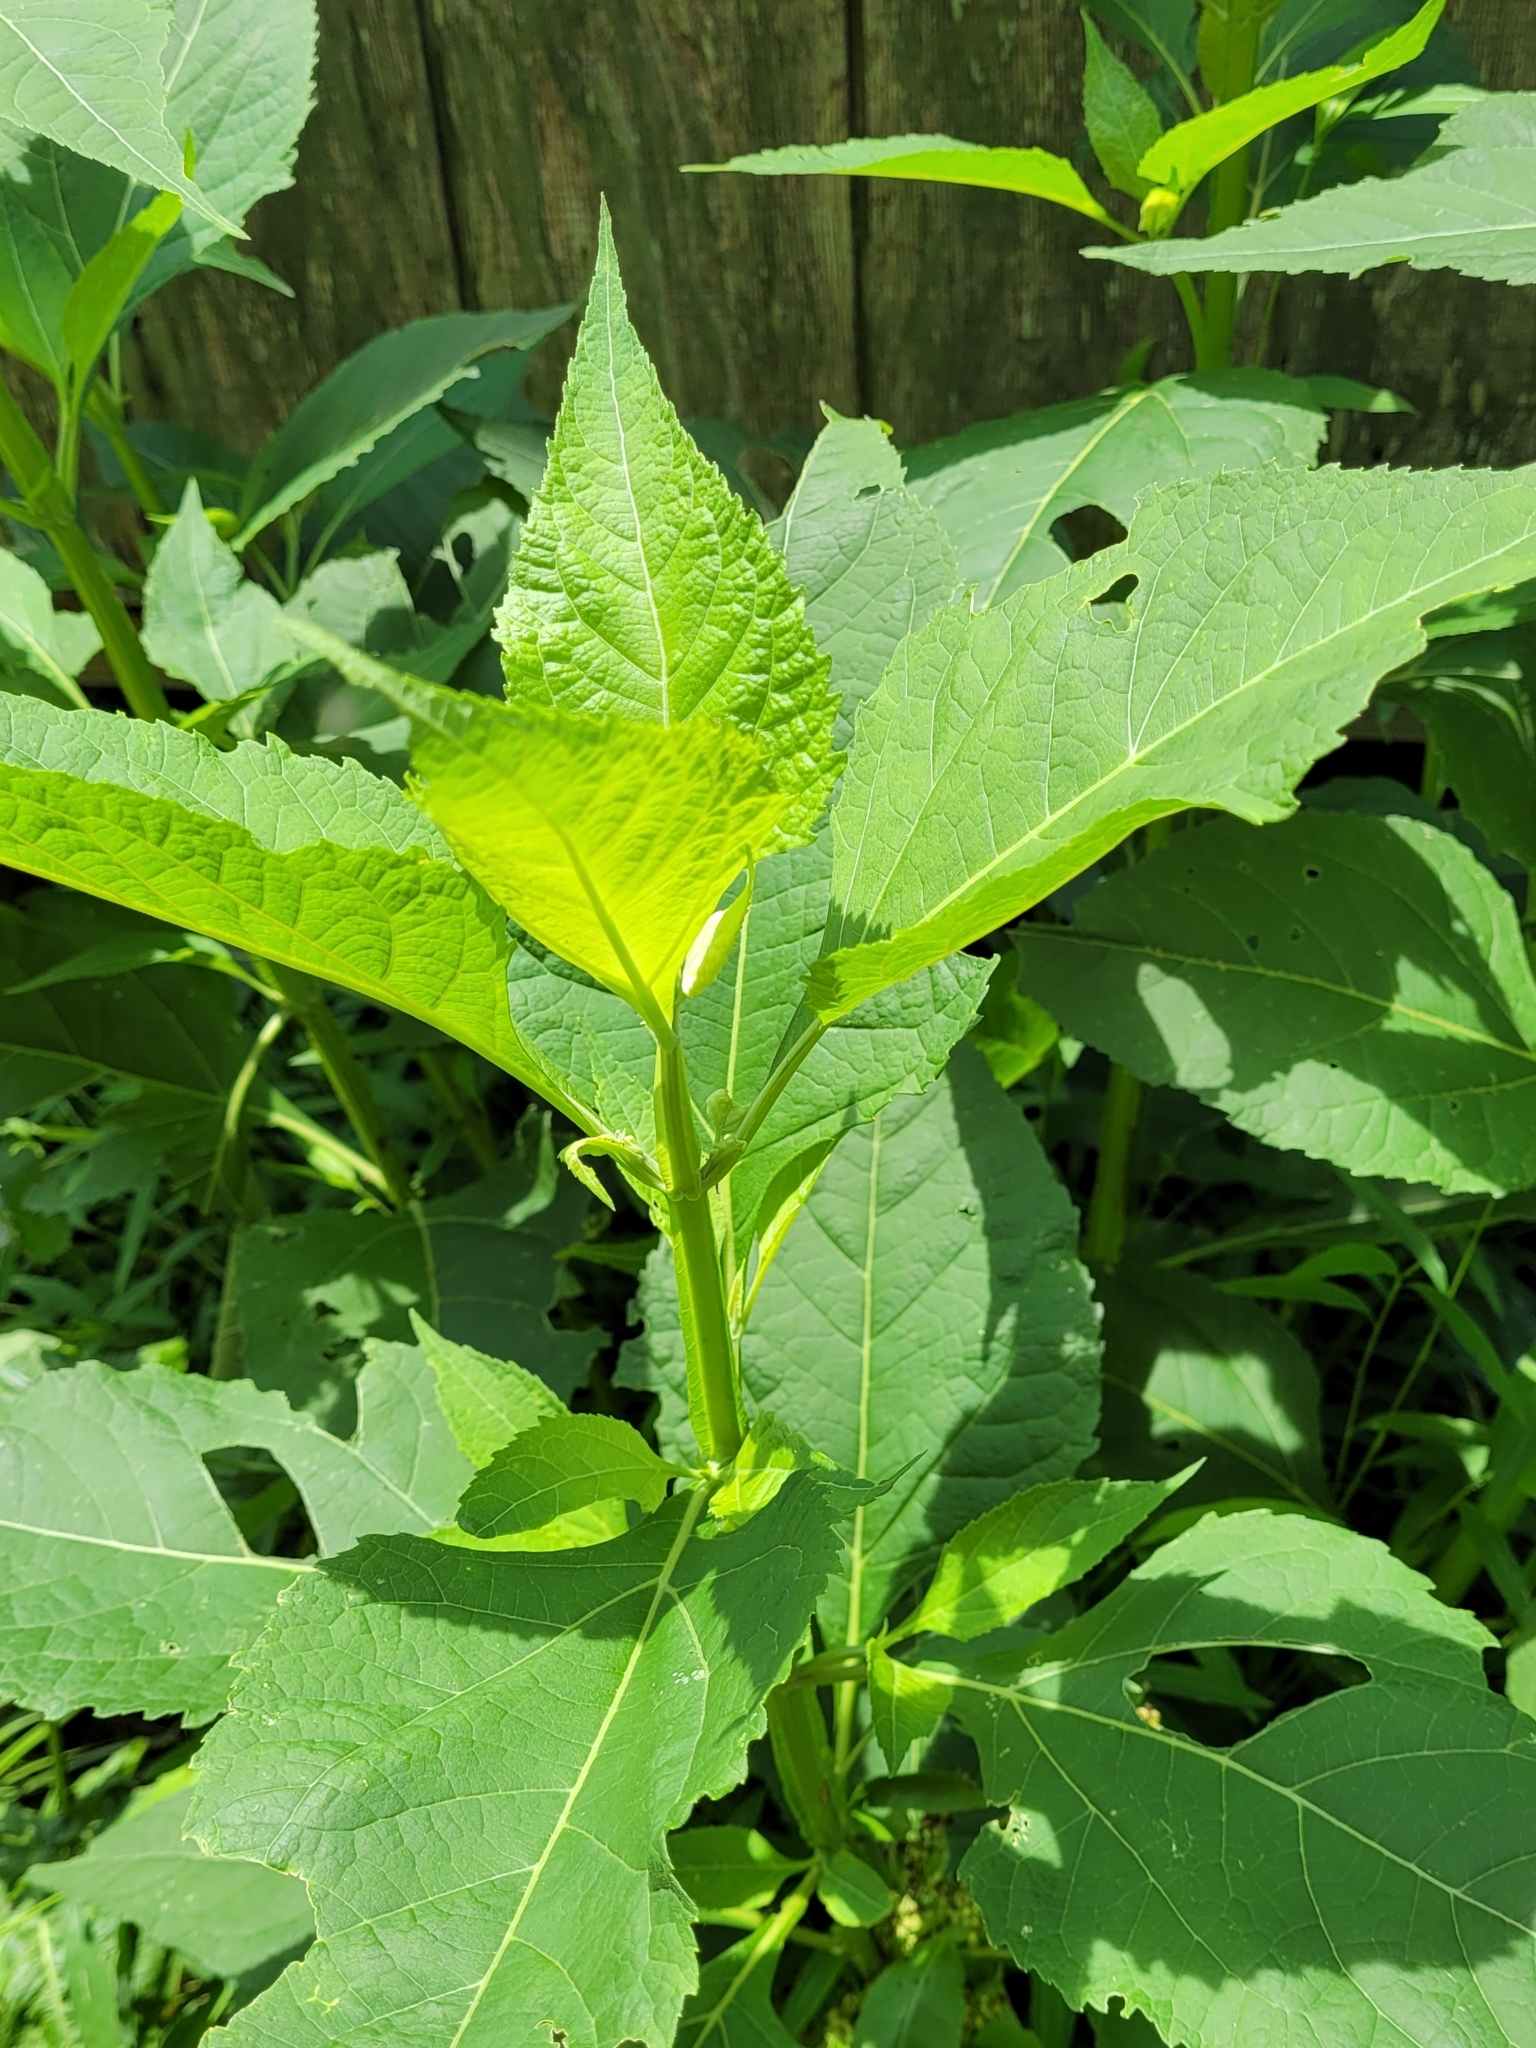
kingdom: Plantae
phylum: Tracheophyta
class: Magnoliopsida
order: Asterales
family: Asteraceae
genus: Verbesina
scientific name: Verbesina occidentalis
